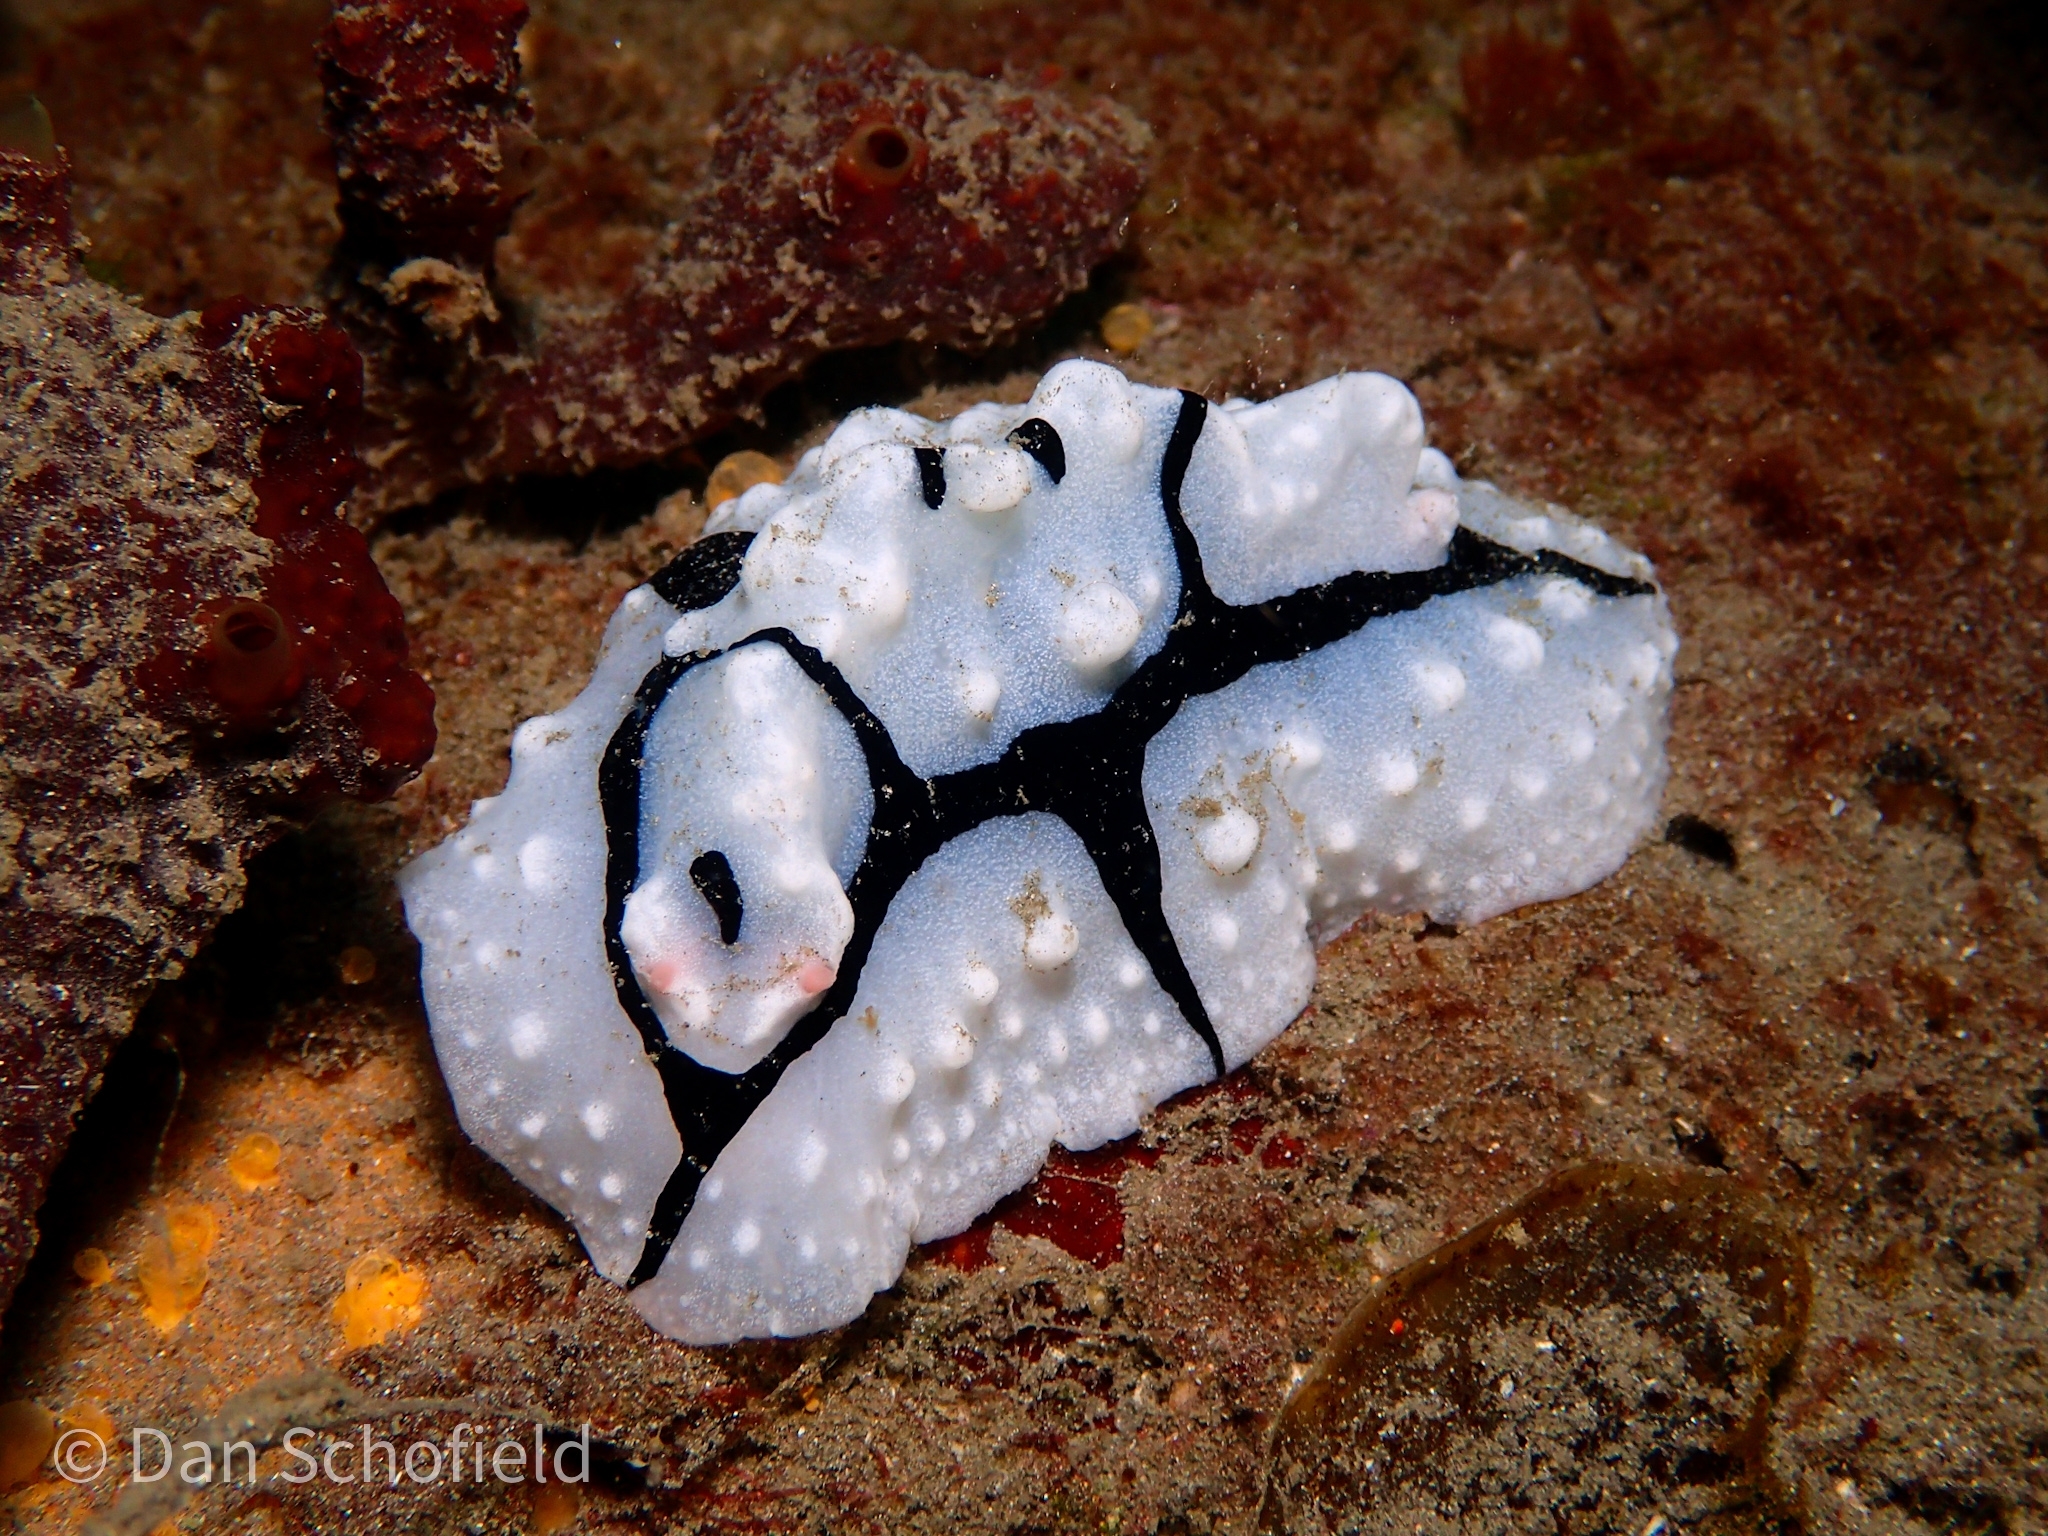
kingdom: Animalia
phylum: Mollusca
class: Gastropoda
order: Nudibranchia
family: Phyllidiidae
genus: Phyllidiopsis
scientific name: Phyllidiopsis shireenae
